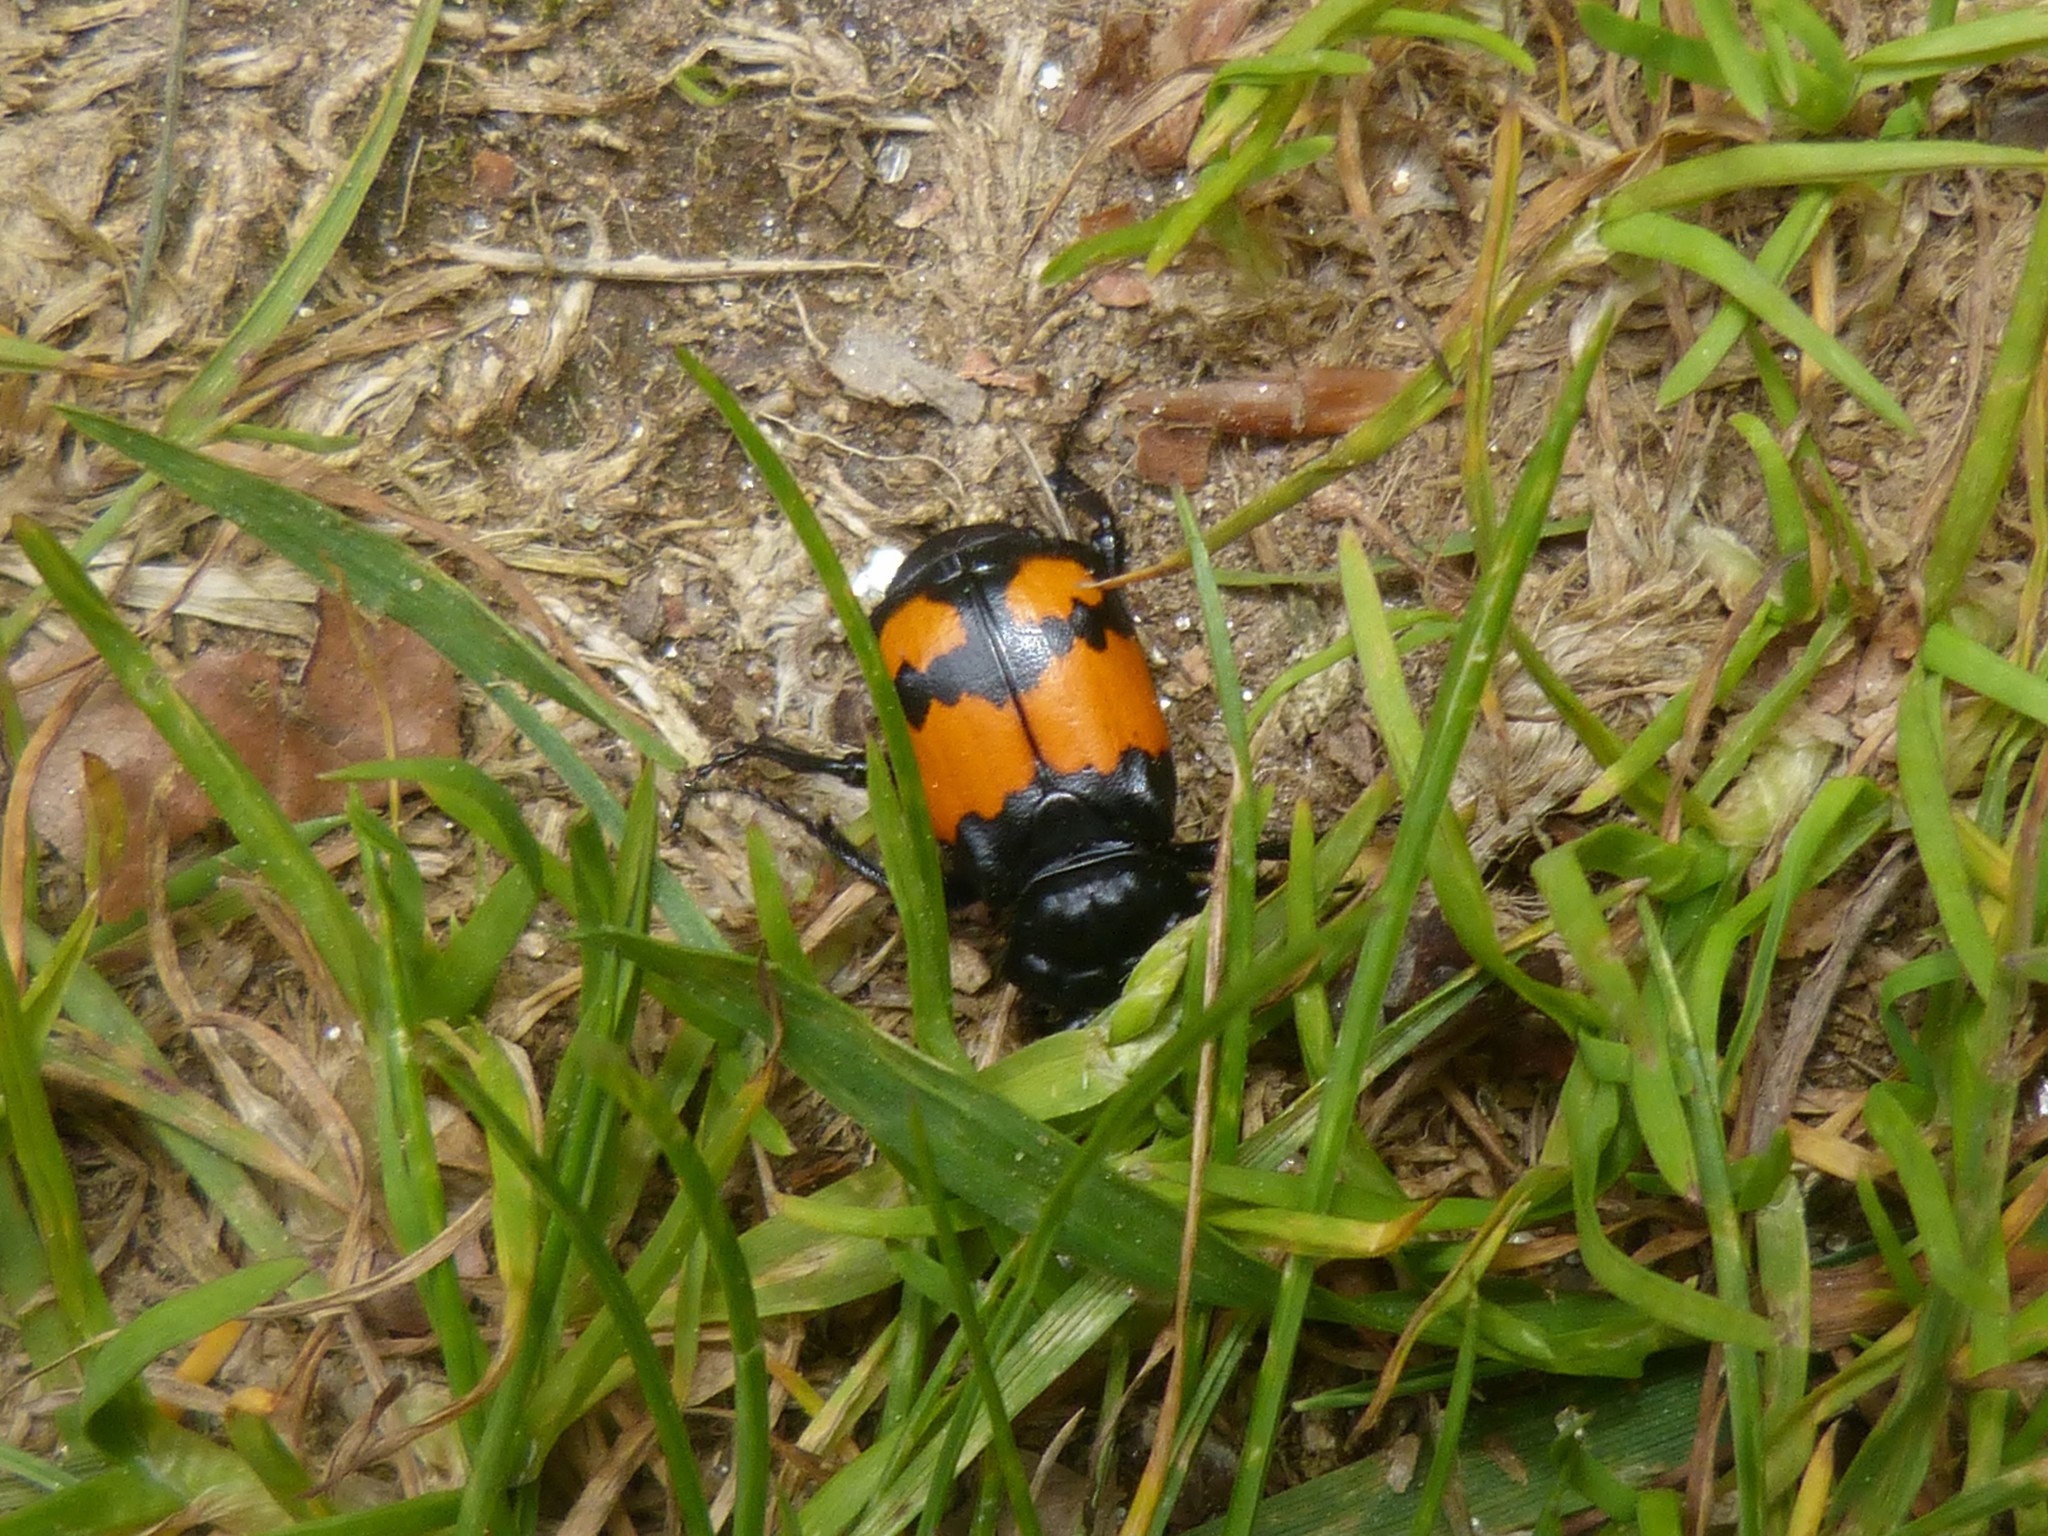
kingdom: Animalia
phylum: Arthropoda
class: Insecta
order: Coleoptera
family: Staphylinidae
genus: Nicrophorus
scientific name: Nicrophorus vespilloides
